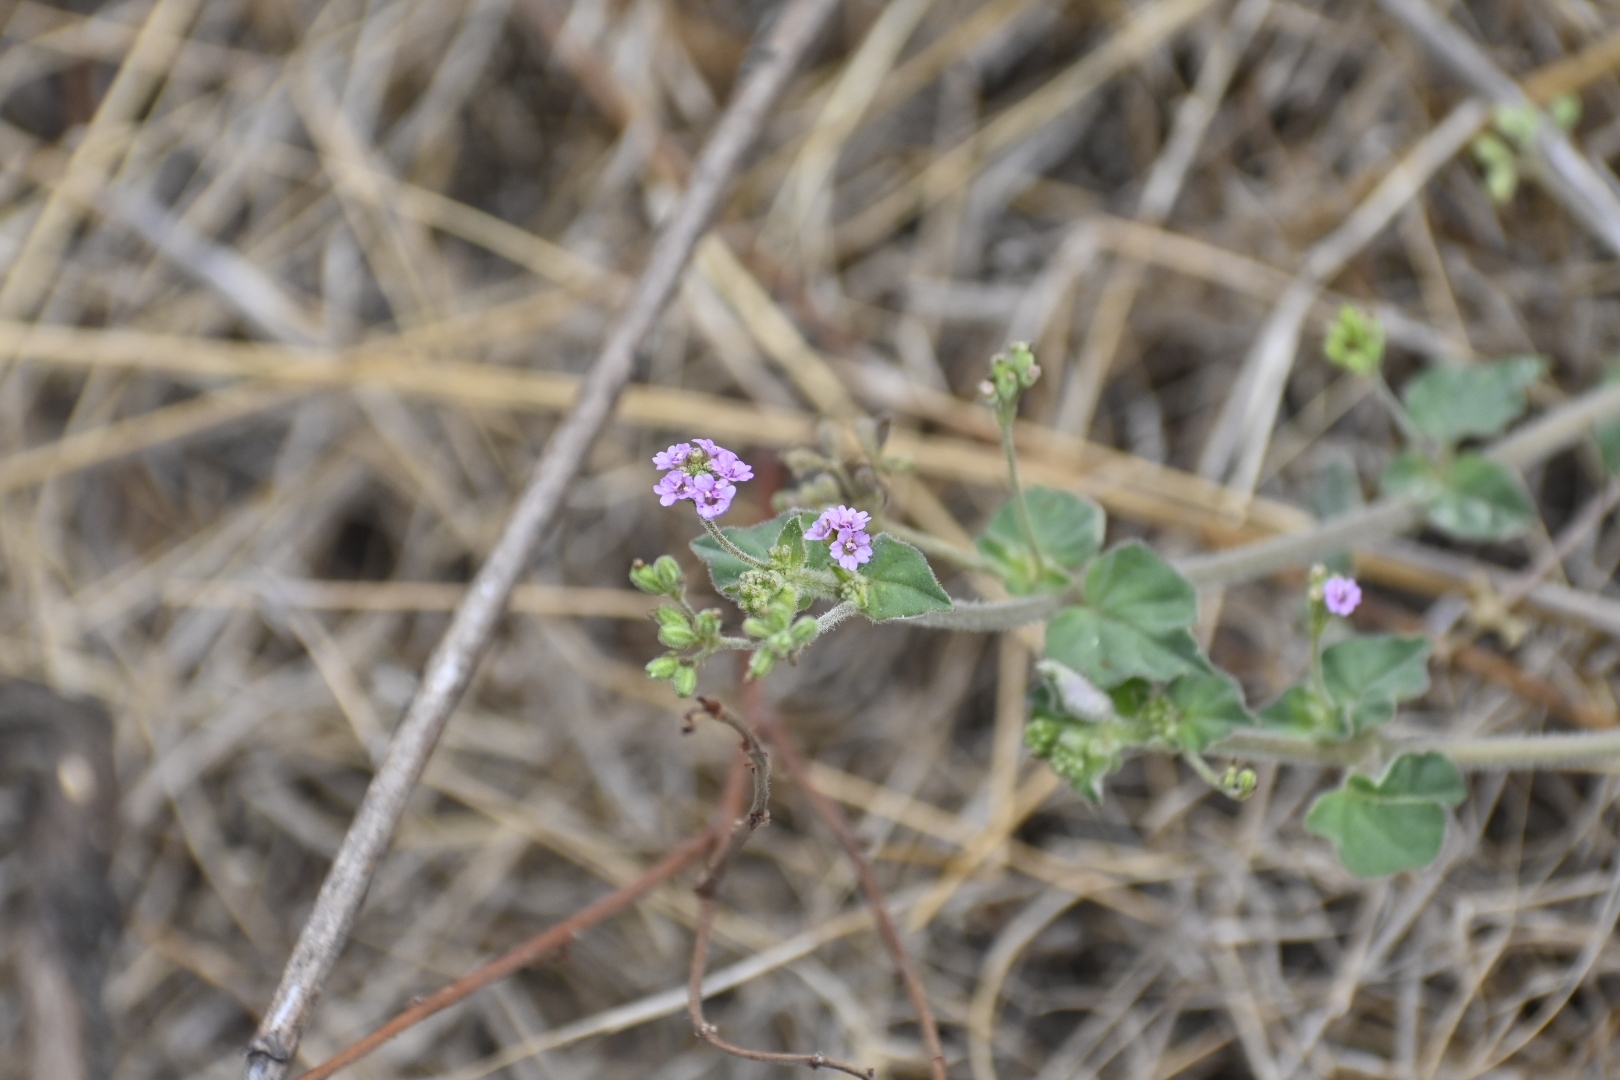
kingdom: Plantae
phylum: Tracheophyta
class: Magnoliopsida
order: Caryophyllales
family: Nyctaginaceae
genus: Boerhavia
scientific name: Boerhavia diffusa
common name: Red spiderling
